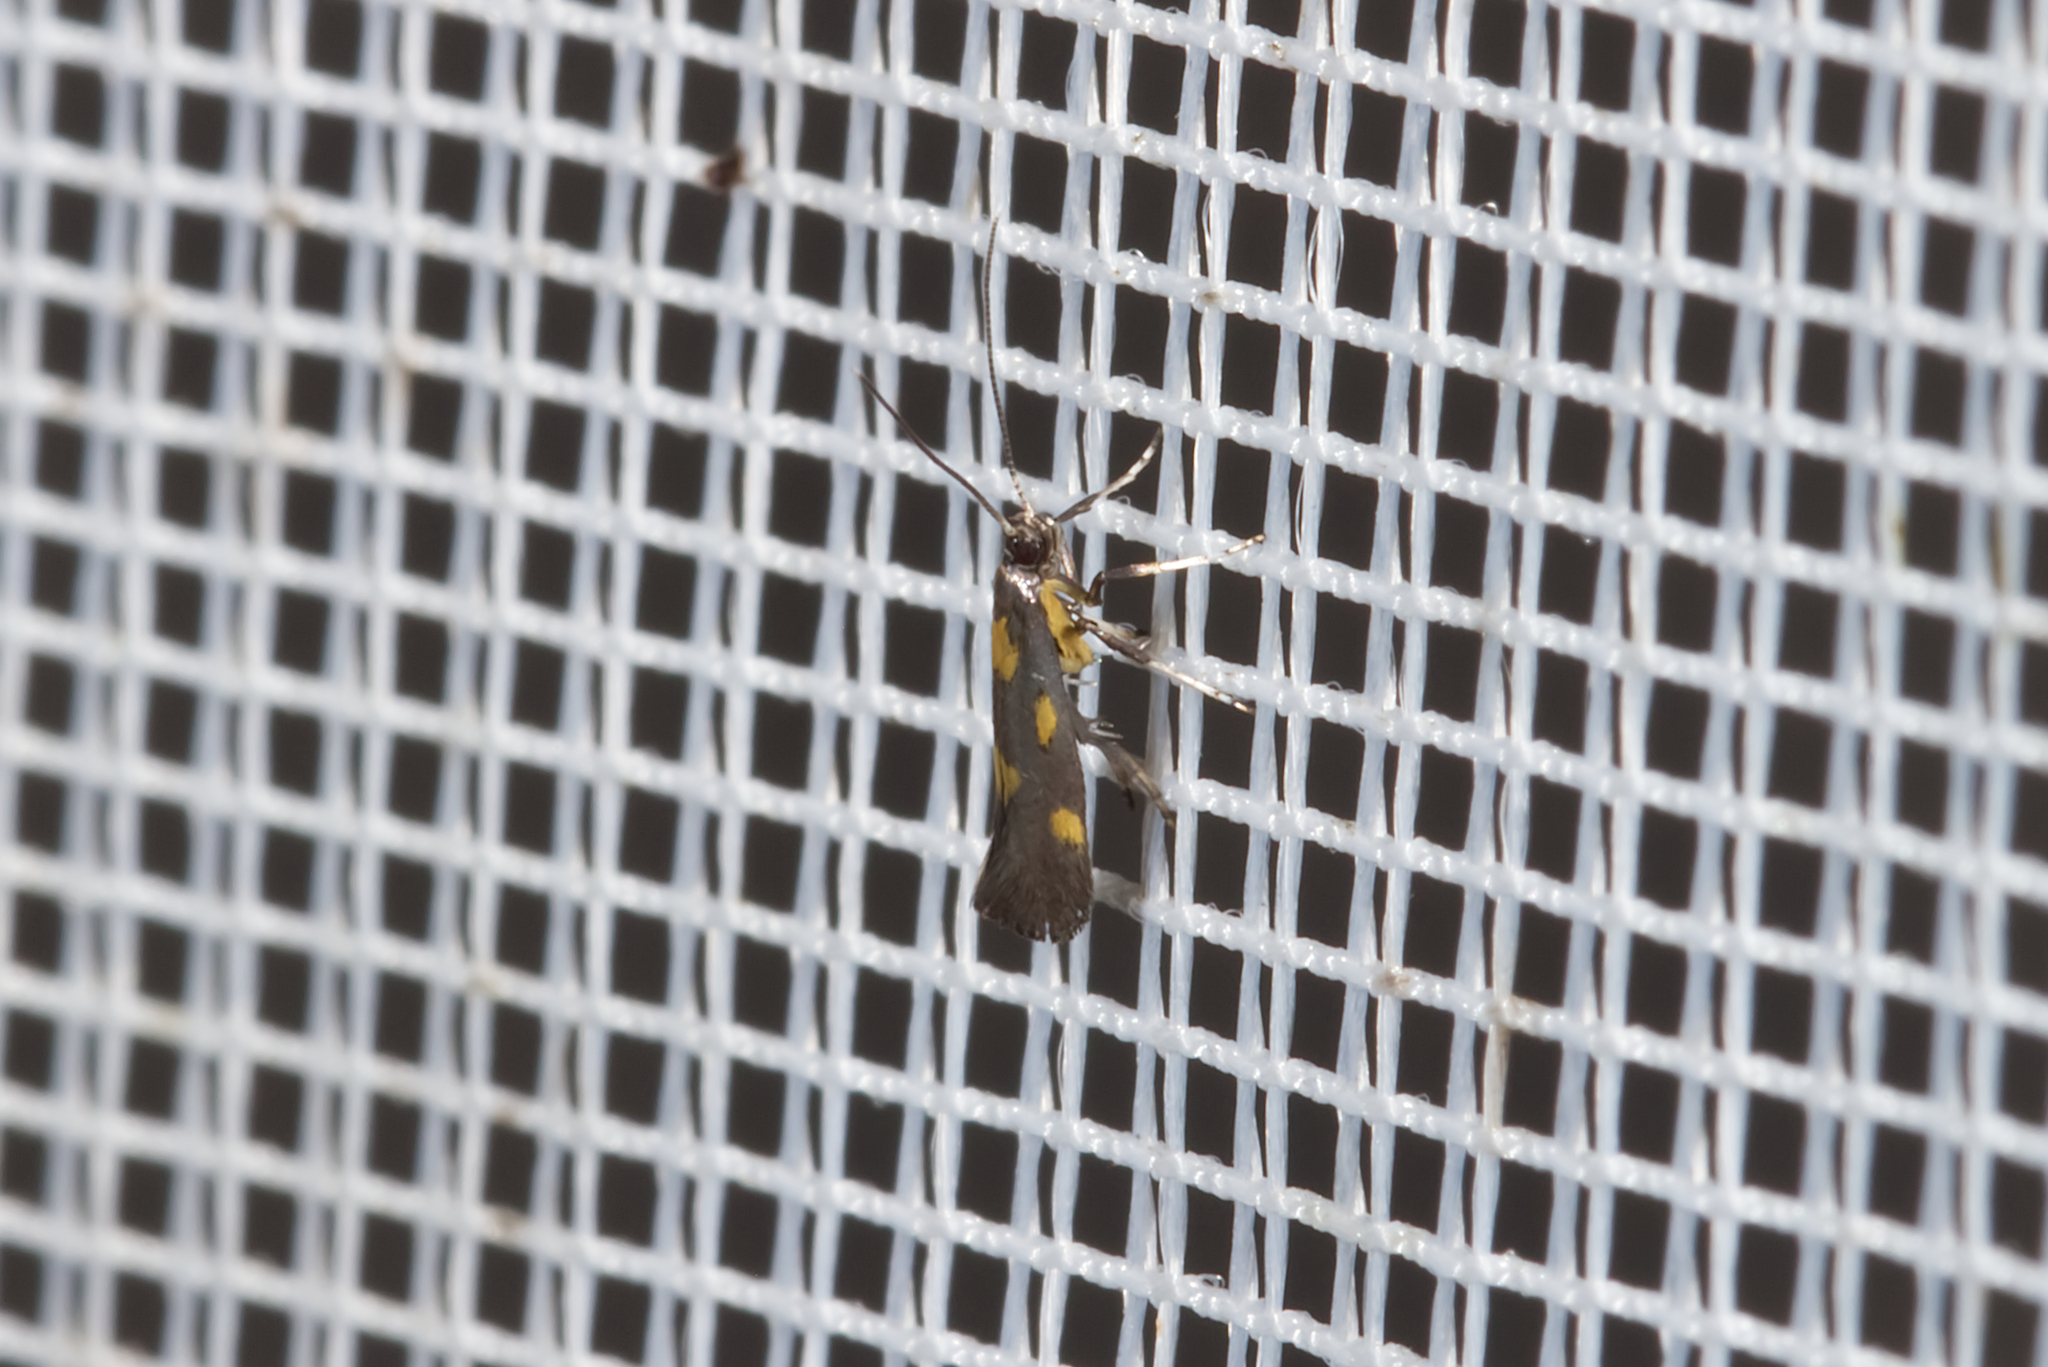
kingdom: Animalia
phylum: Arthropoda
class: Insecta
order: Lepidoptera
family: Gracillariidae
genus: Euspilapteryx
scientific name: Euspilapteryx auroguttella
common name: Gold-dot slender
